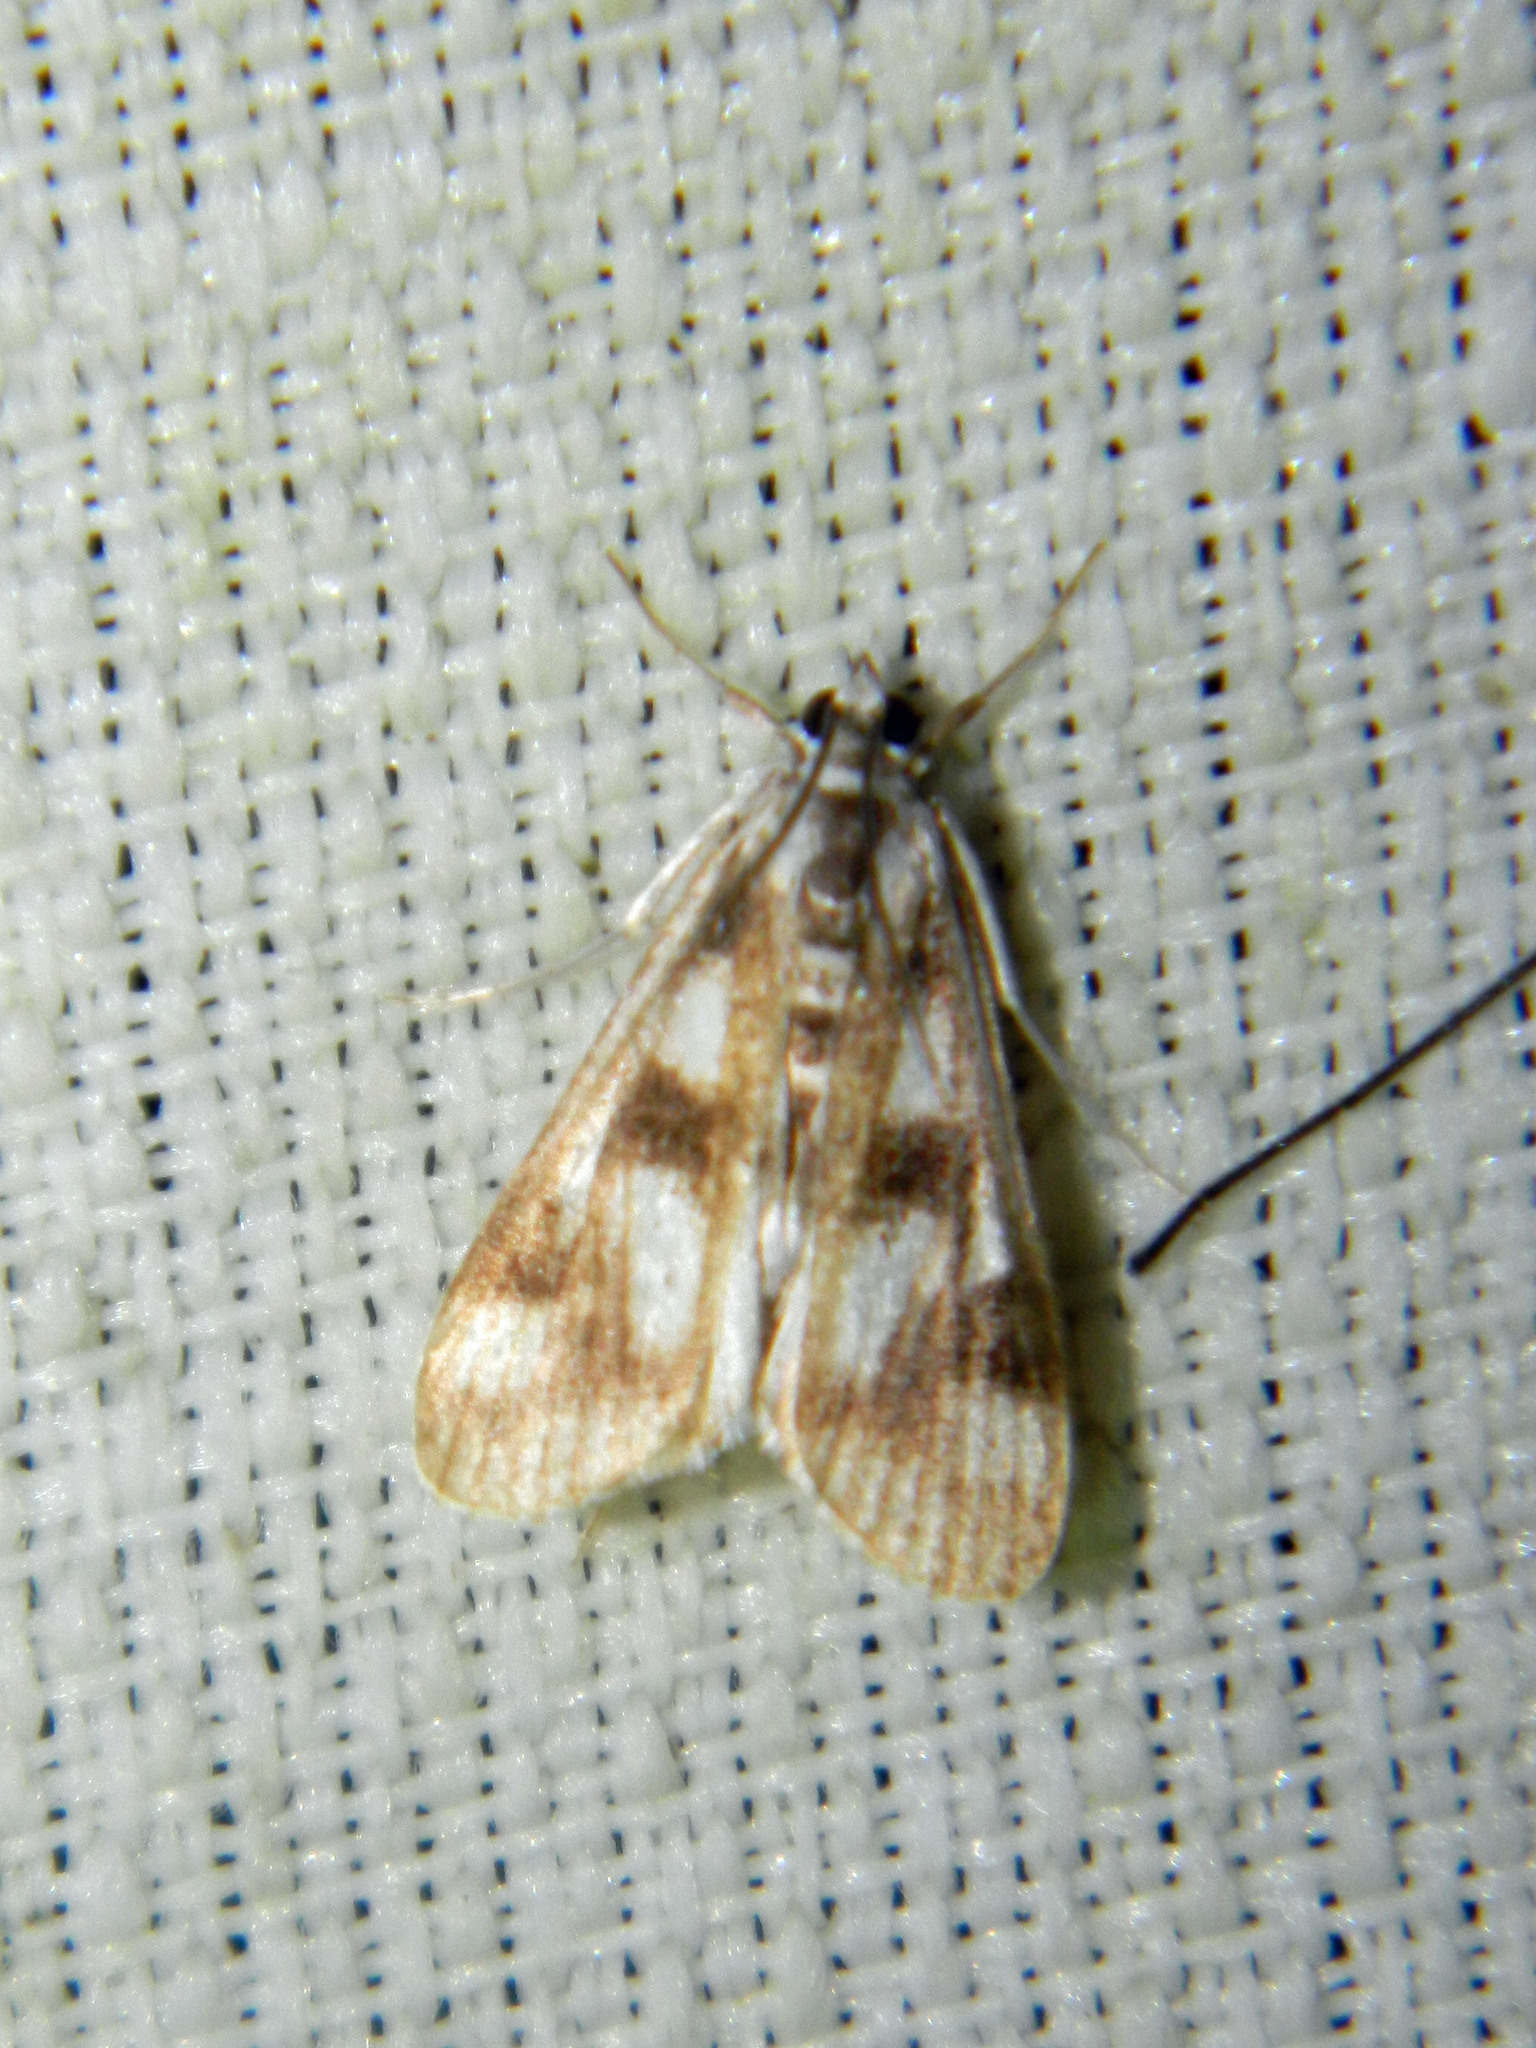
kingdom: Animalia
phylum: Arthropoda
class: Insecta
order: Lepidoptera
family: Crambidae
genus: Parapoynx
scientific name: Parapoynx maculalis
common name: Polymorphic pondweed moth
